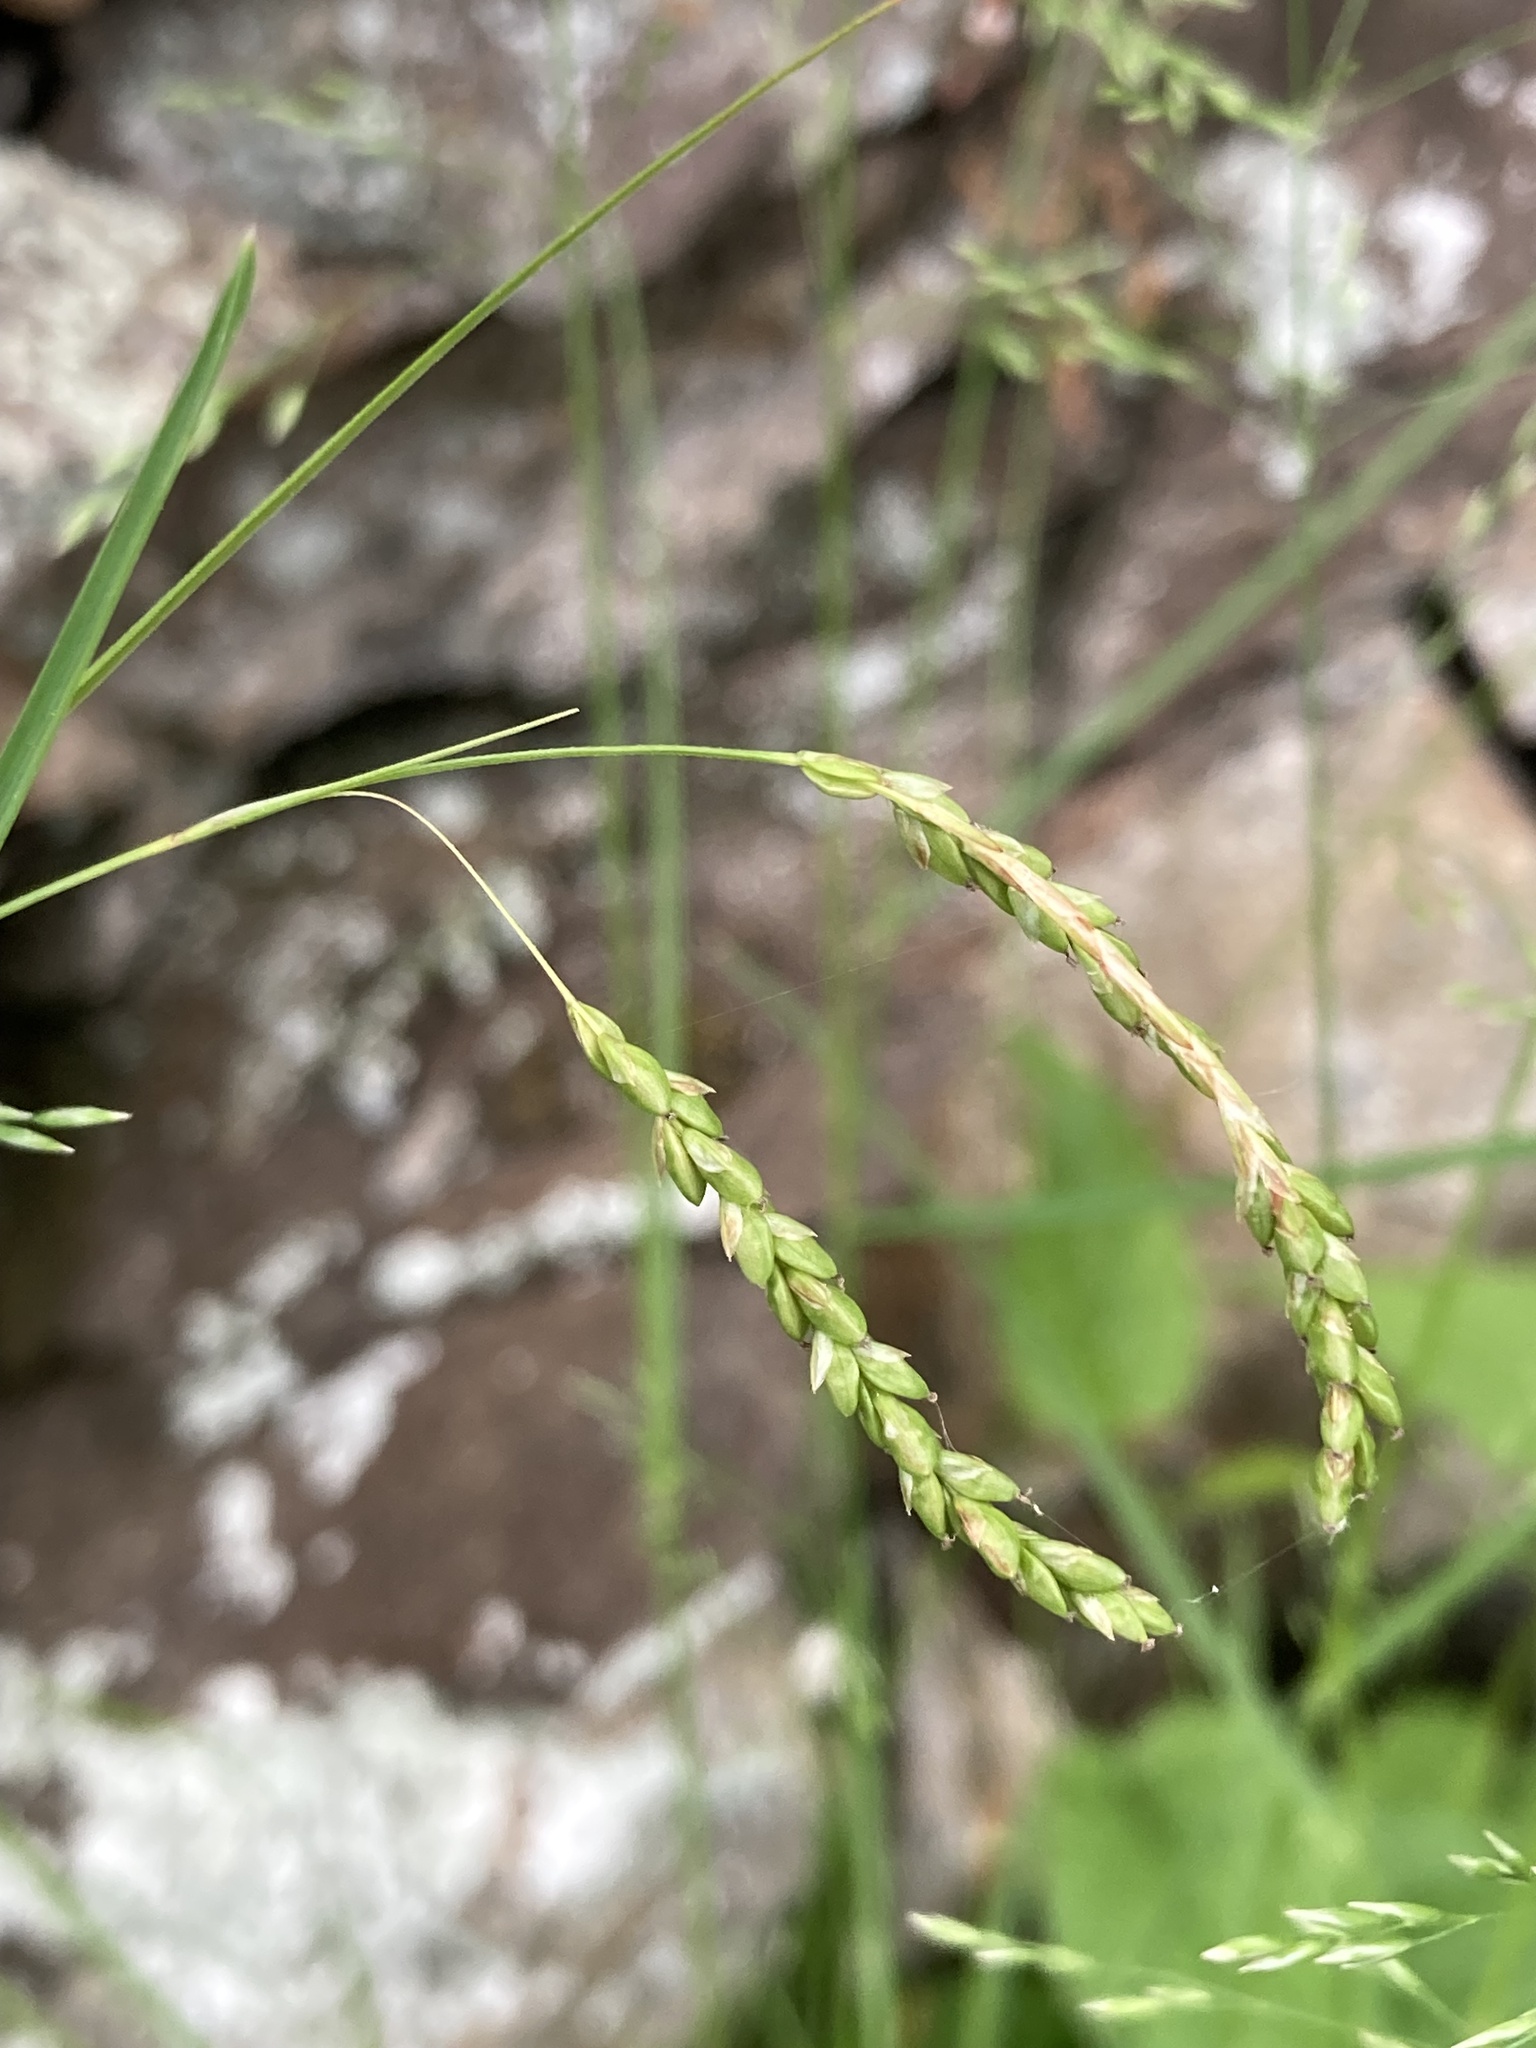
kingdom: Plantae
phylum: Tracheophyta
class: Liliopsida
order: Poales
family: Cyperaceae
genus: Carex
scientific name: Carex gracillima
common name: Graceful sedge
